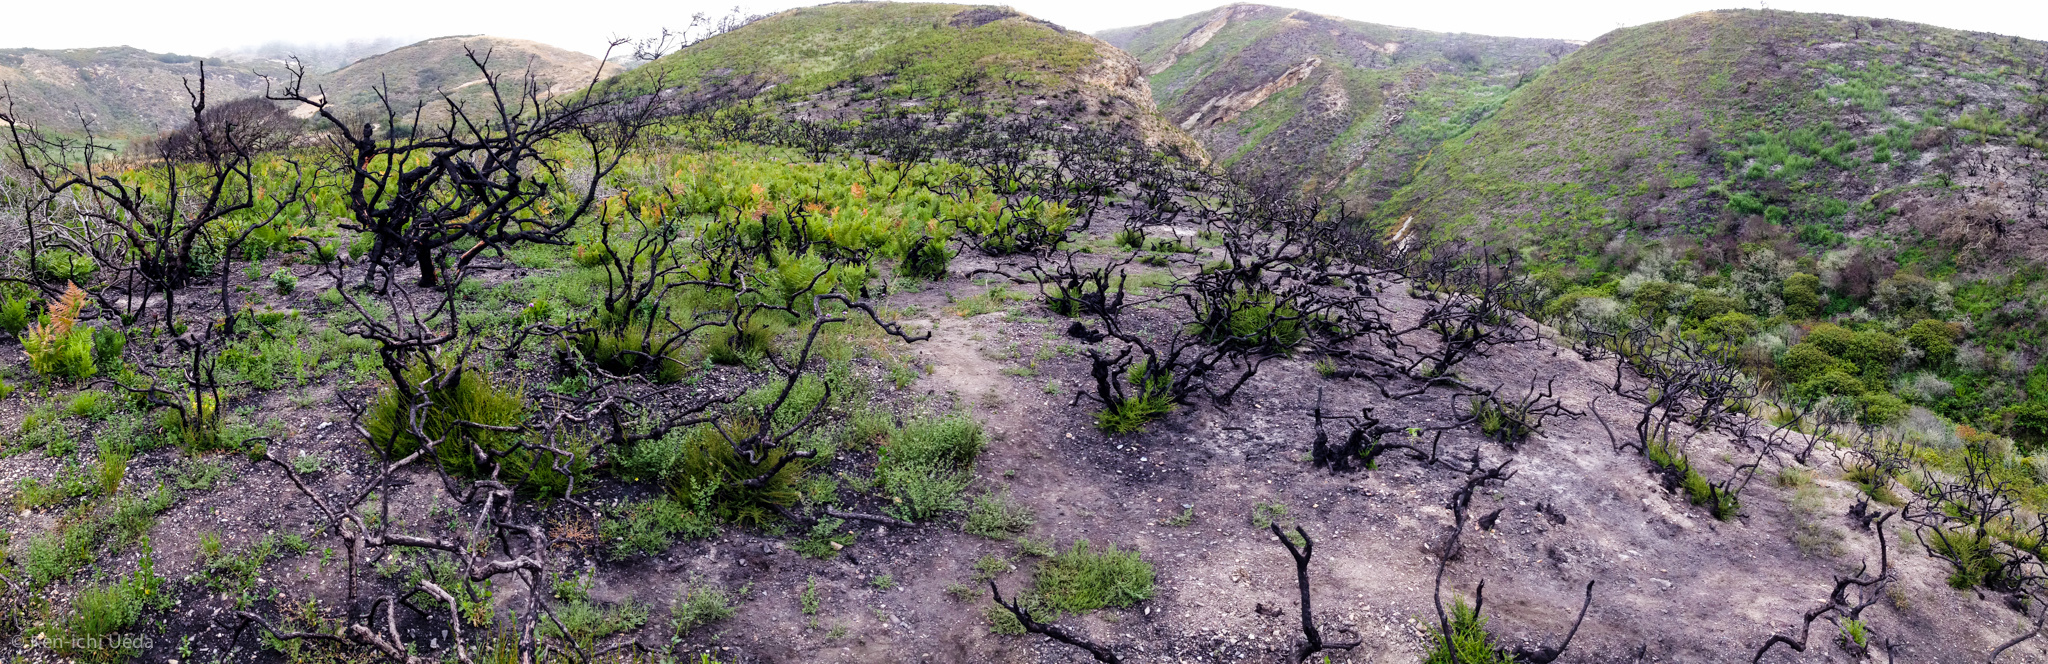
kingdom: Plantae
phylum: Tracheophyta
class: Magnoliopsida
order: Rosales
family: Rosaceae
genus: Adenostoma
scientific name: Adenostoma fasciculatum
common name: Chamise
